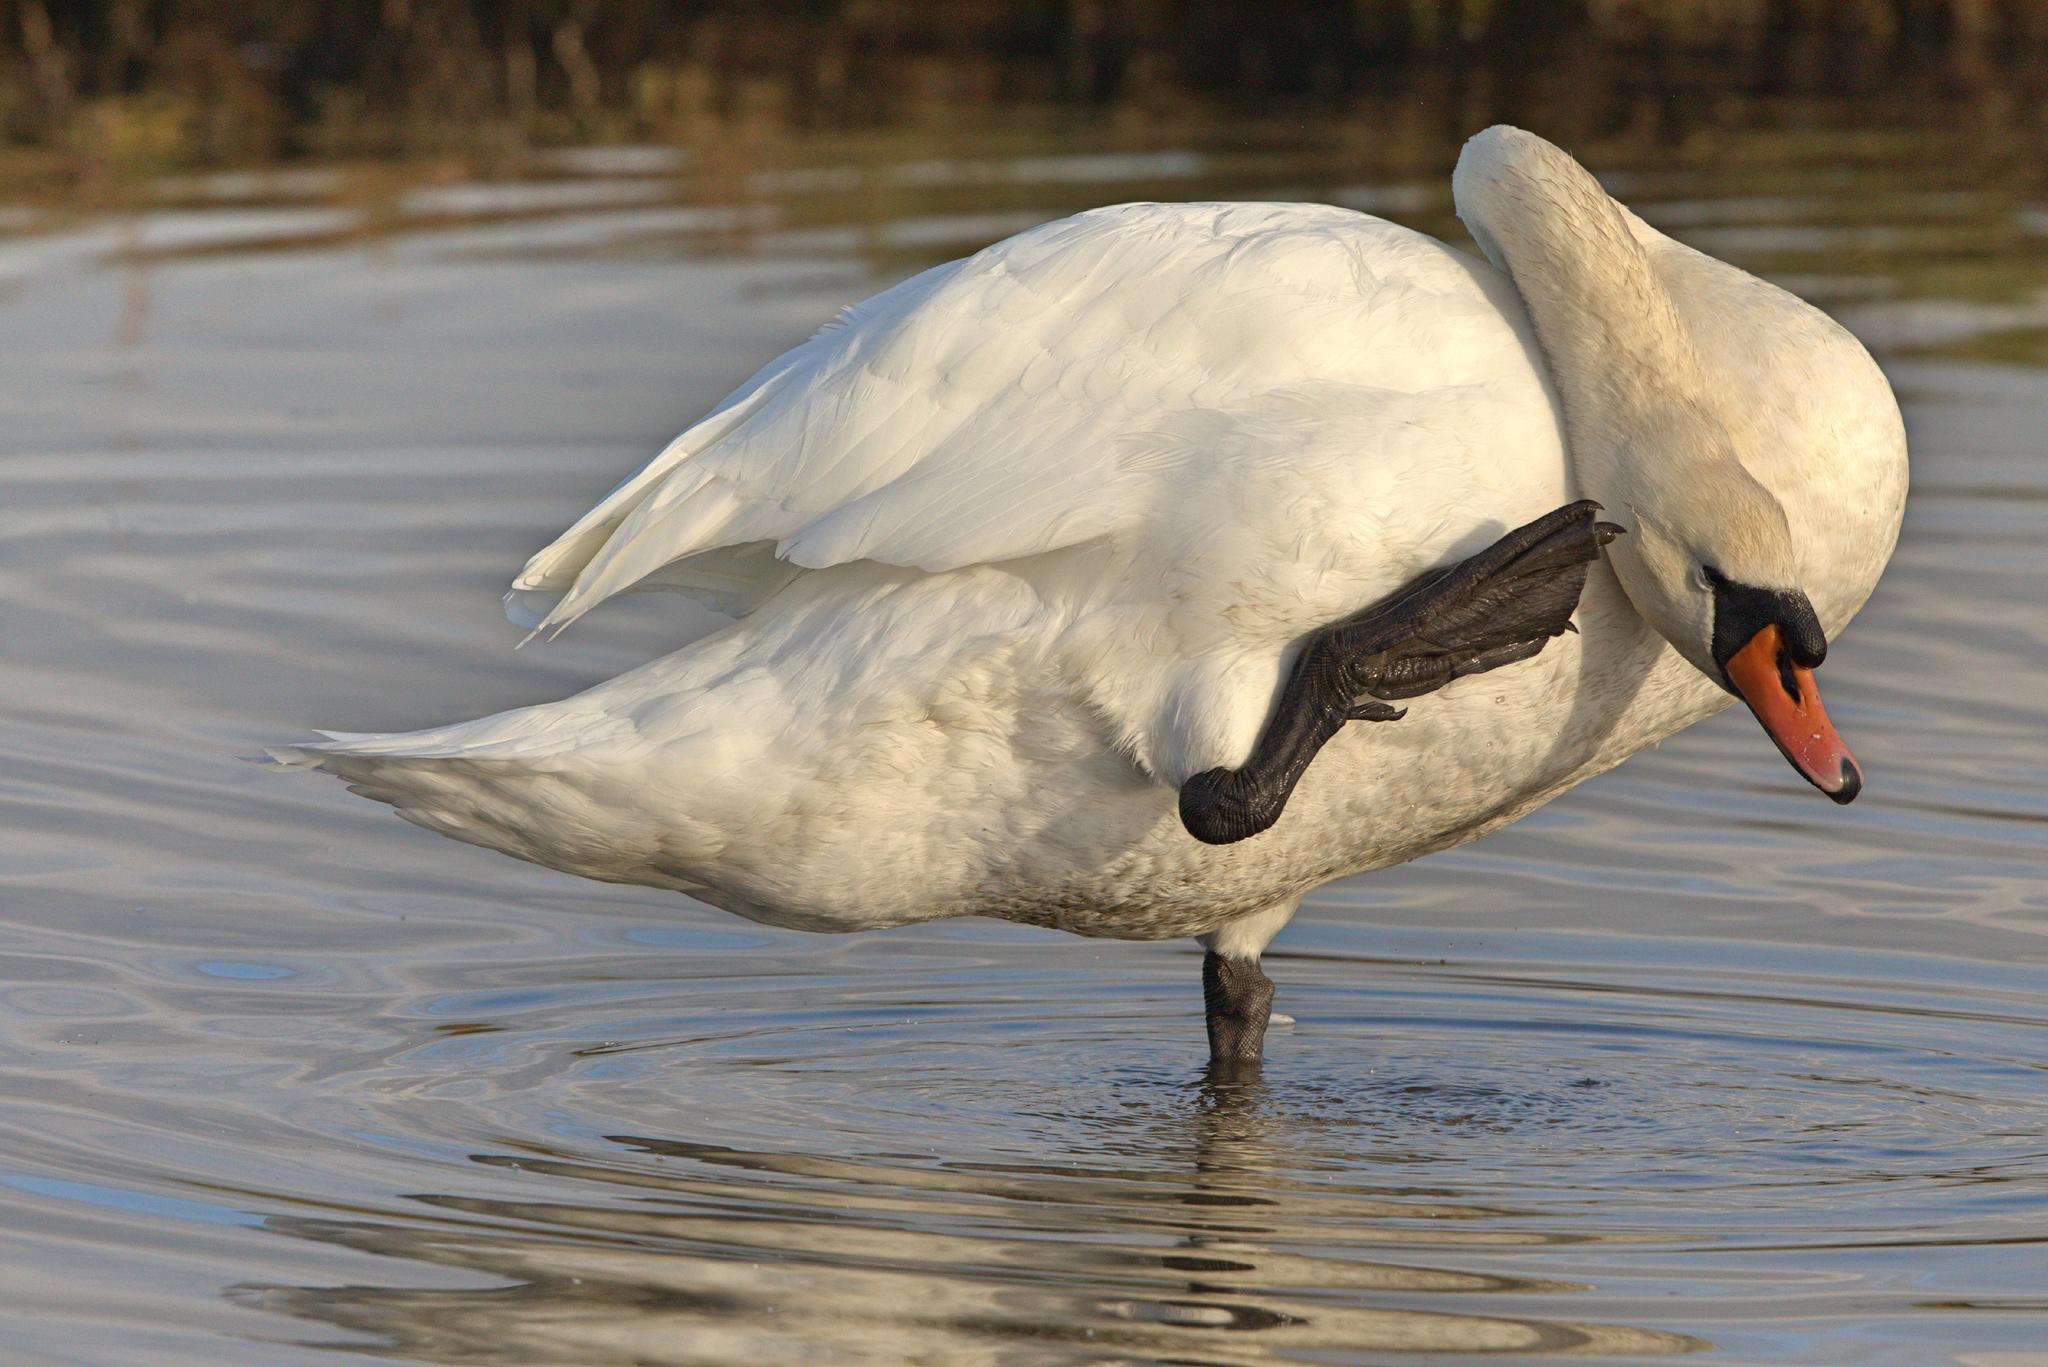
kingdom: Animalia
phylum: Chordata
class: Aves
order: Anseriformes
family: Anatidae
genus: Cygnus
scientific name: Cygnus olor
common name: Mute swan
